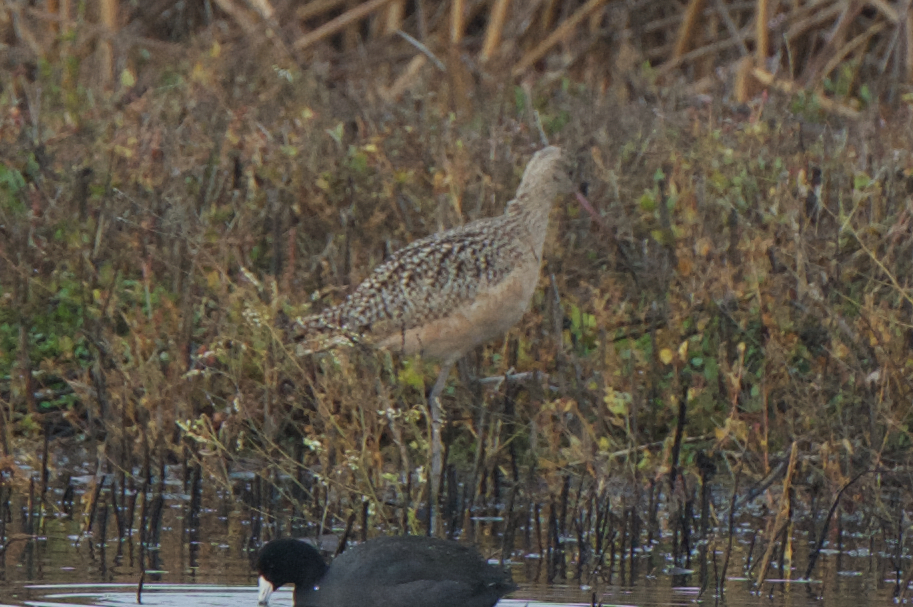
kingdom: Animalia
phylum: Chordata
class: Aves
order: Charadriiformes
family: Scolopacidae
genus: Numenius
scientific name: Numenius americanus
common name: Long-billed curlew
